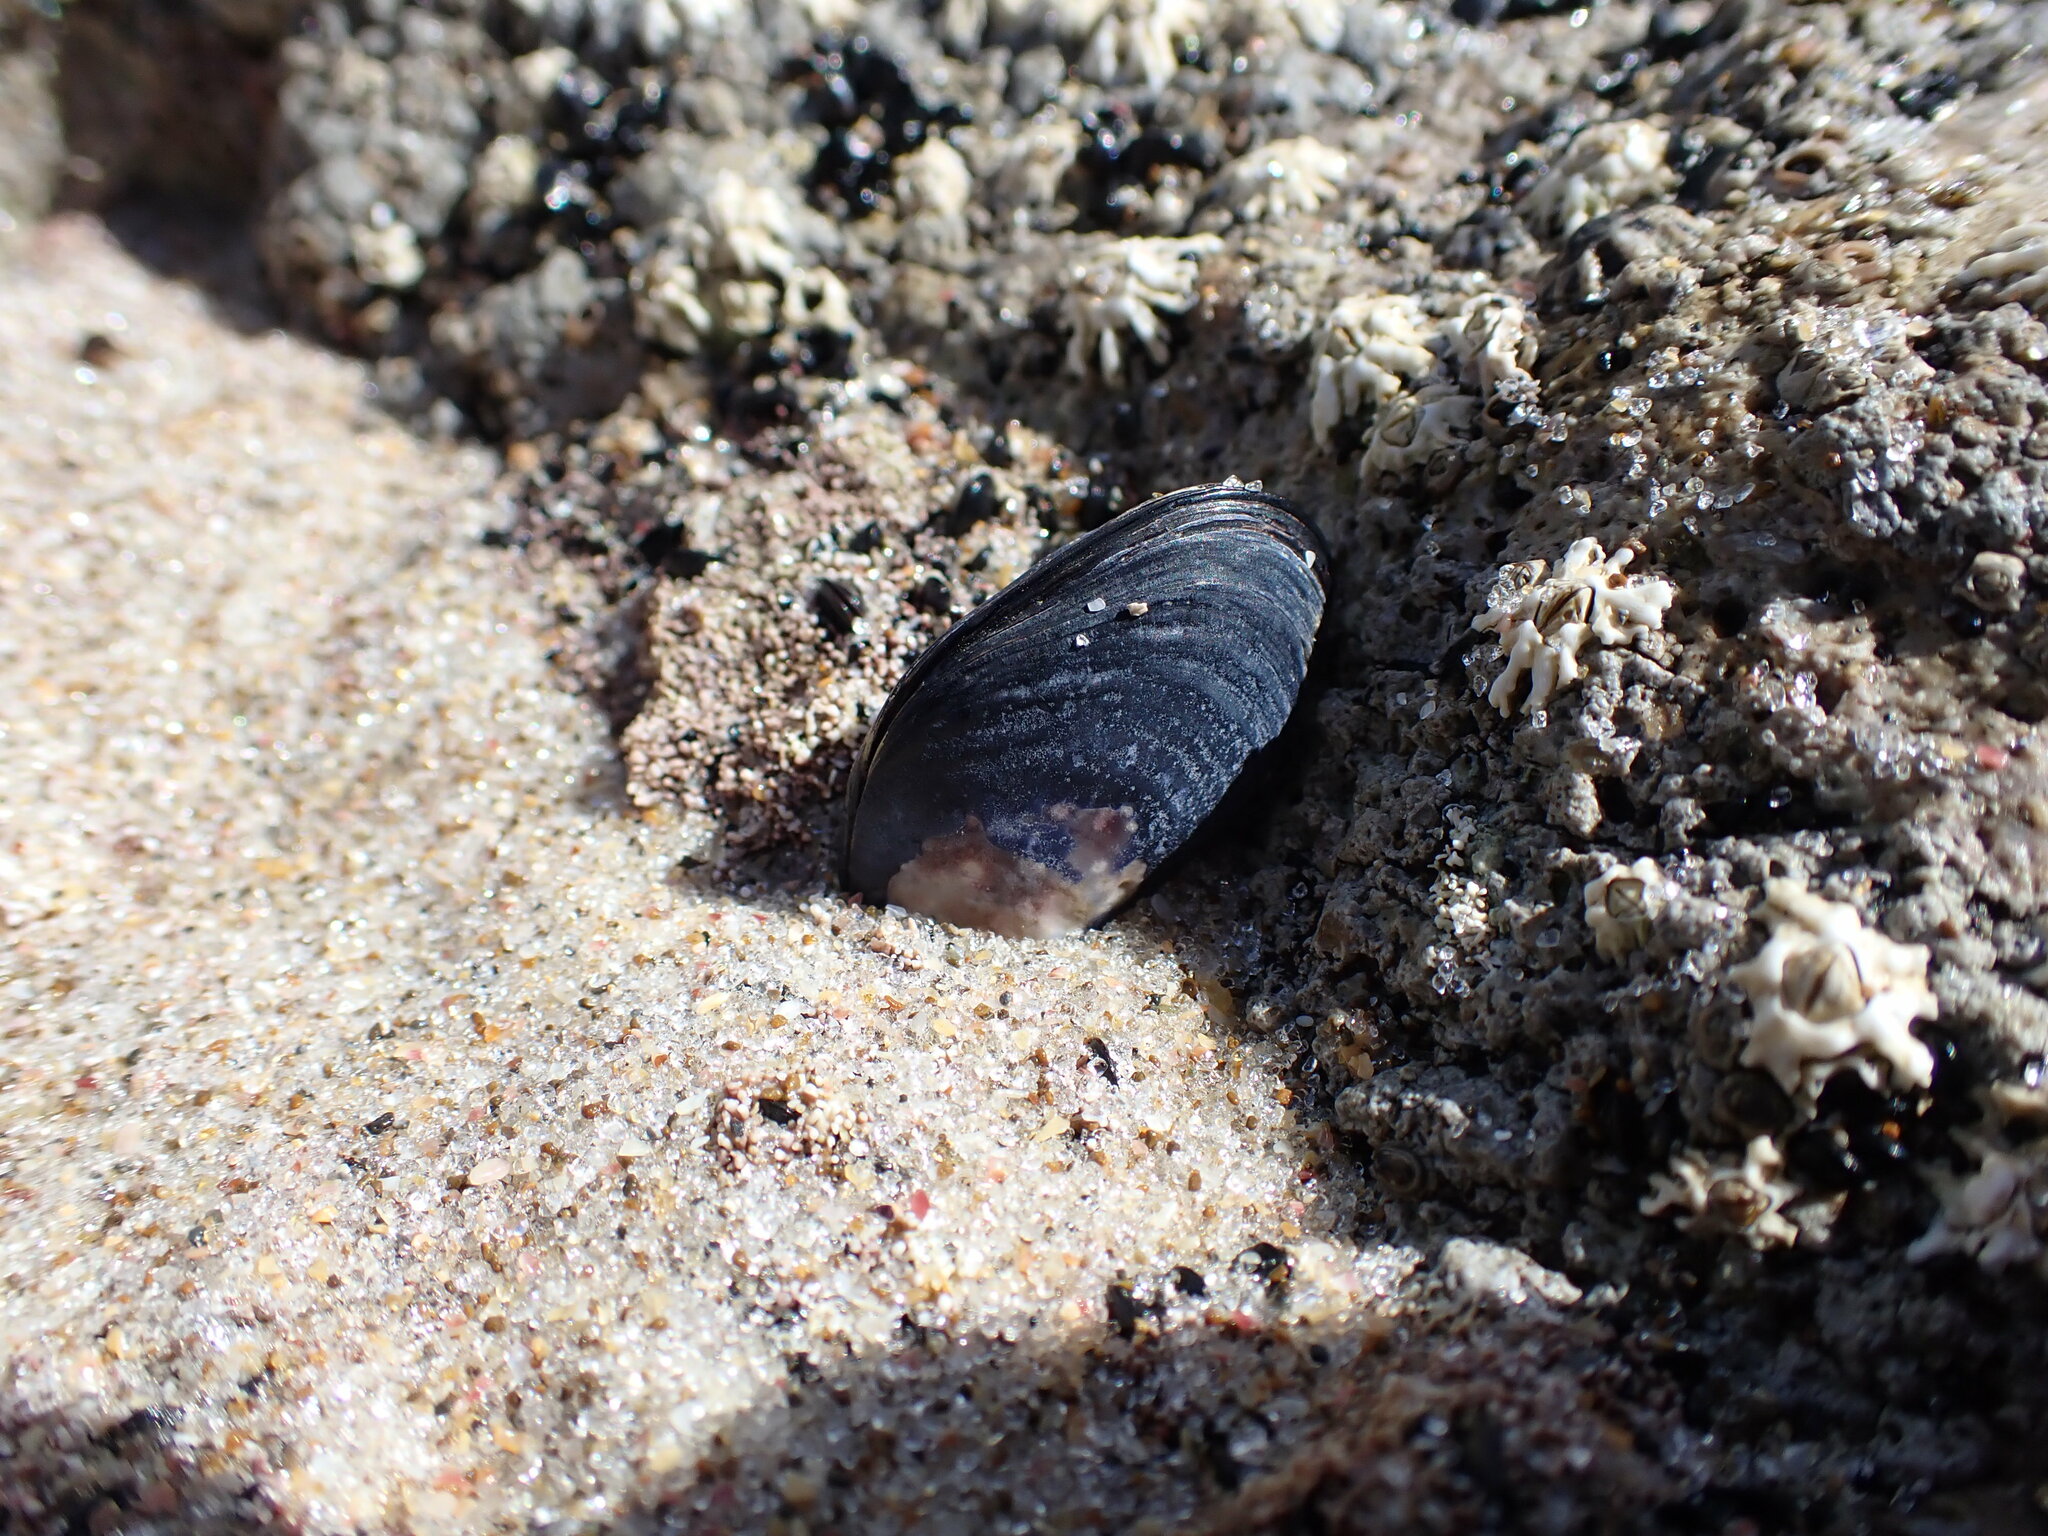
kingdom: Animalia
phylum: Mollusca
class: Bivalvia
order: Mytilida
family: Mytilidae
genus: Mytilus
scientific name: Mytilus planulatus
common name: Australian mussel
